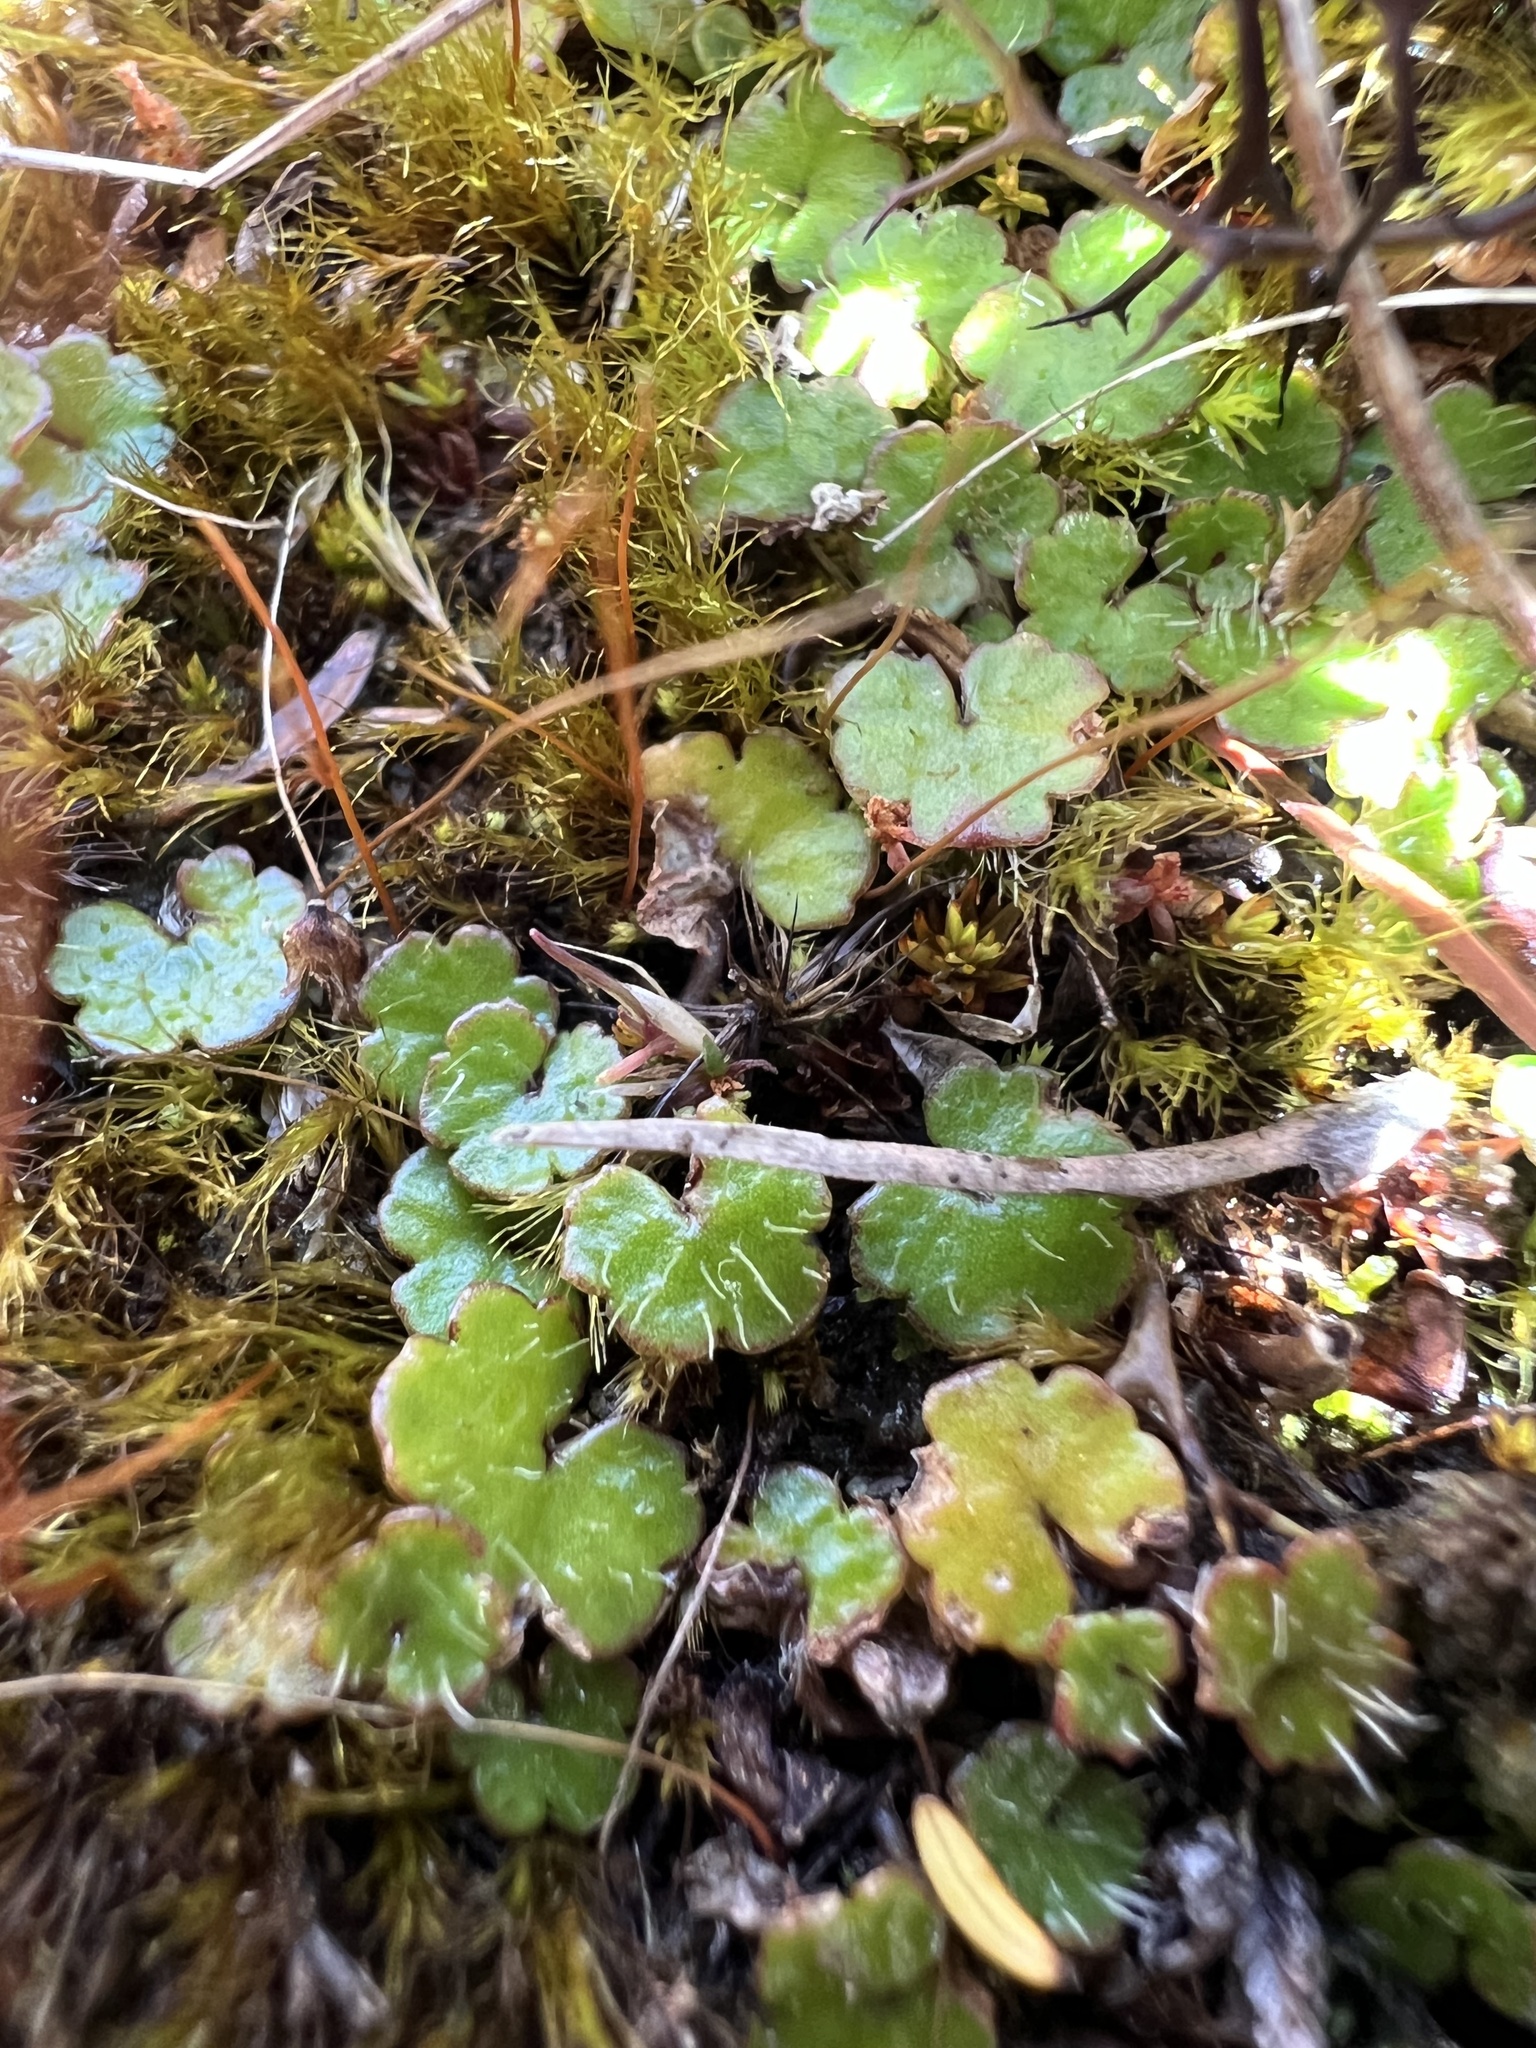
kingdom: Plantae
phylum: Tracheophyta
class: Magnoliopsida
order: Apiales
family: Araliaceae
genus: Hydrocotyle
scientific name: Hydrocotyle novae-zeelandiae
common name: New zealand pennywort
